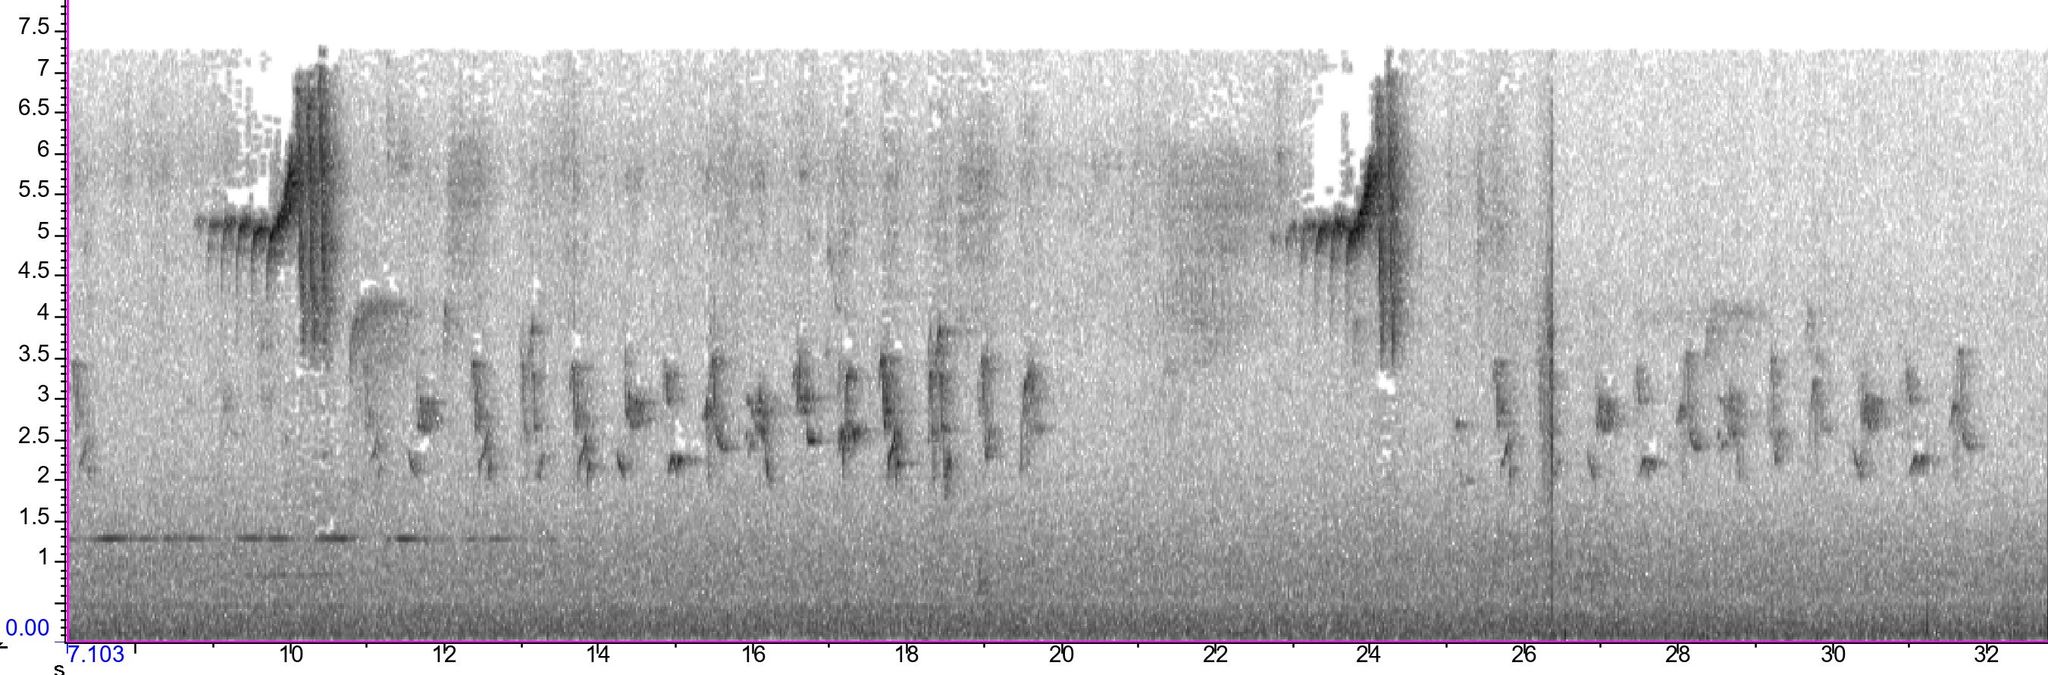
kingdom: Animalia
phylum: Chordata
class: Aves
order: Passeriformes
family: Parulidae
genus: Setophaga
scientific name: Setophaga townsendi
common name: Townsend's warbler
